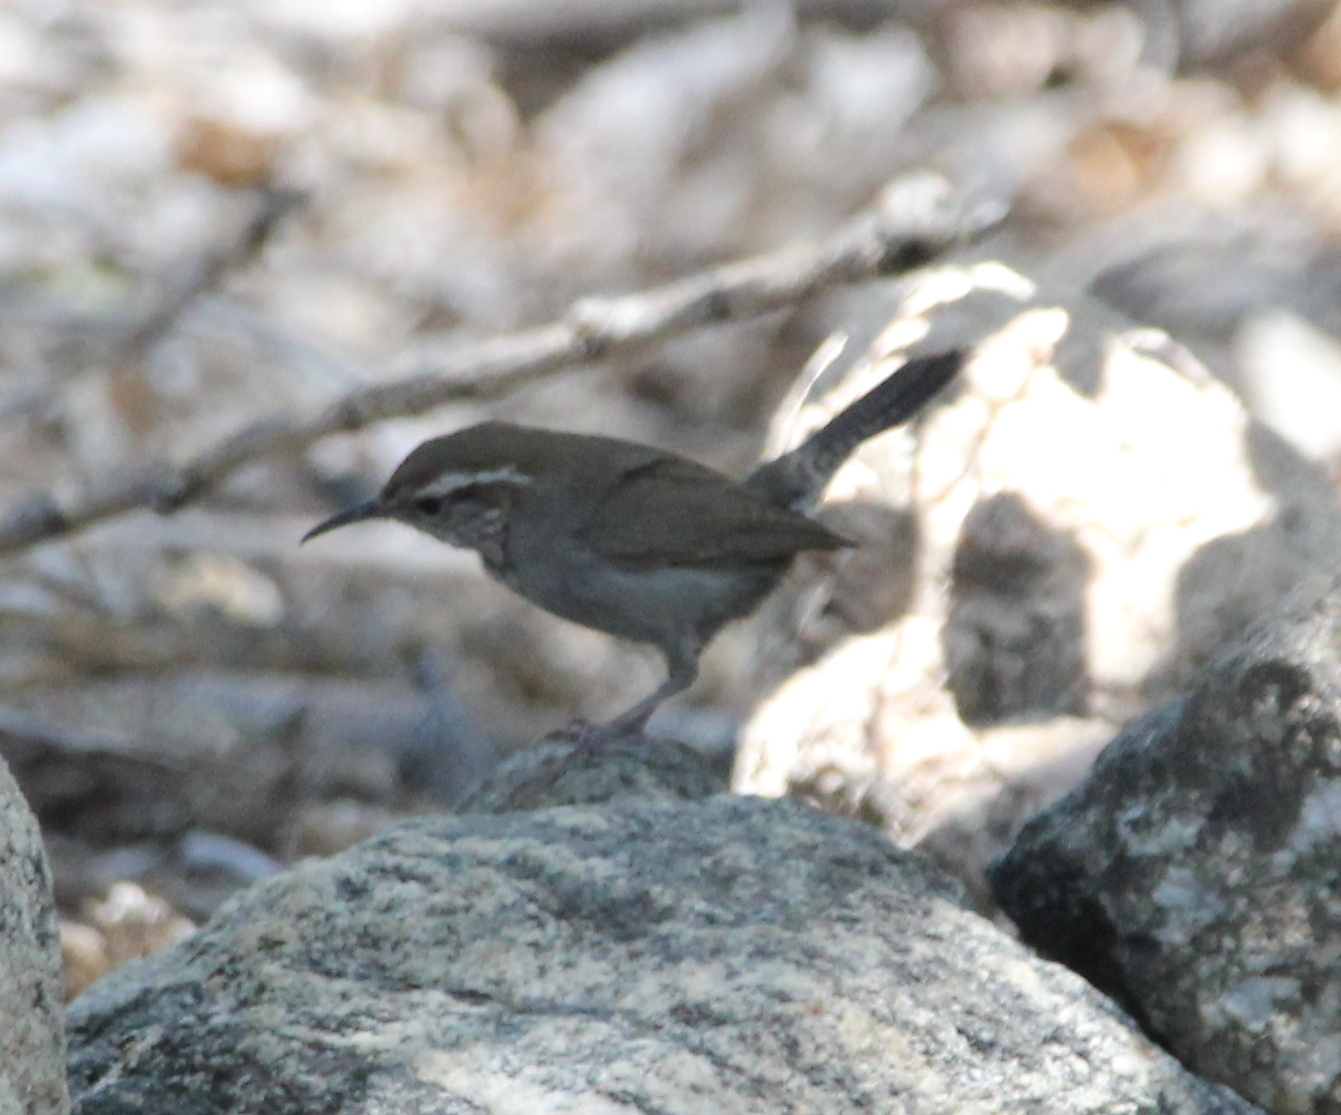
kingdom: Animalia
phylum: Chordata
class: Aves
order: Passeriformes
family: Troglodytidae
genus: Thryomanes
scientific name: Thryomanes bewickii
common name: Bewick's wren
